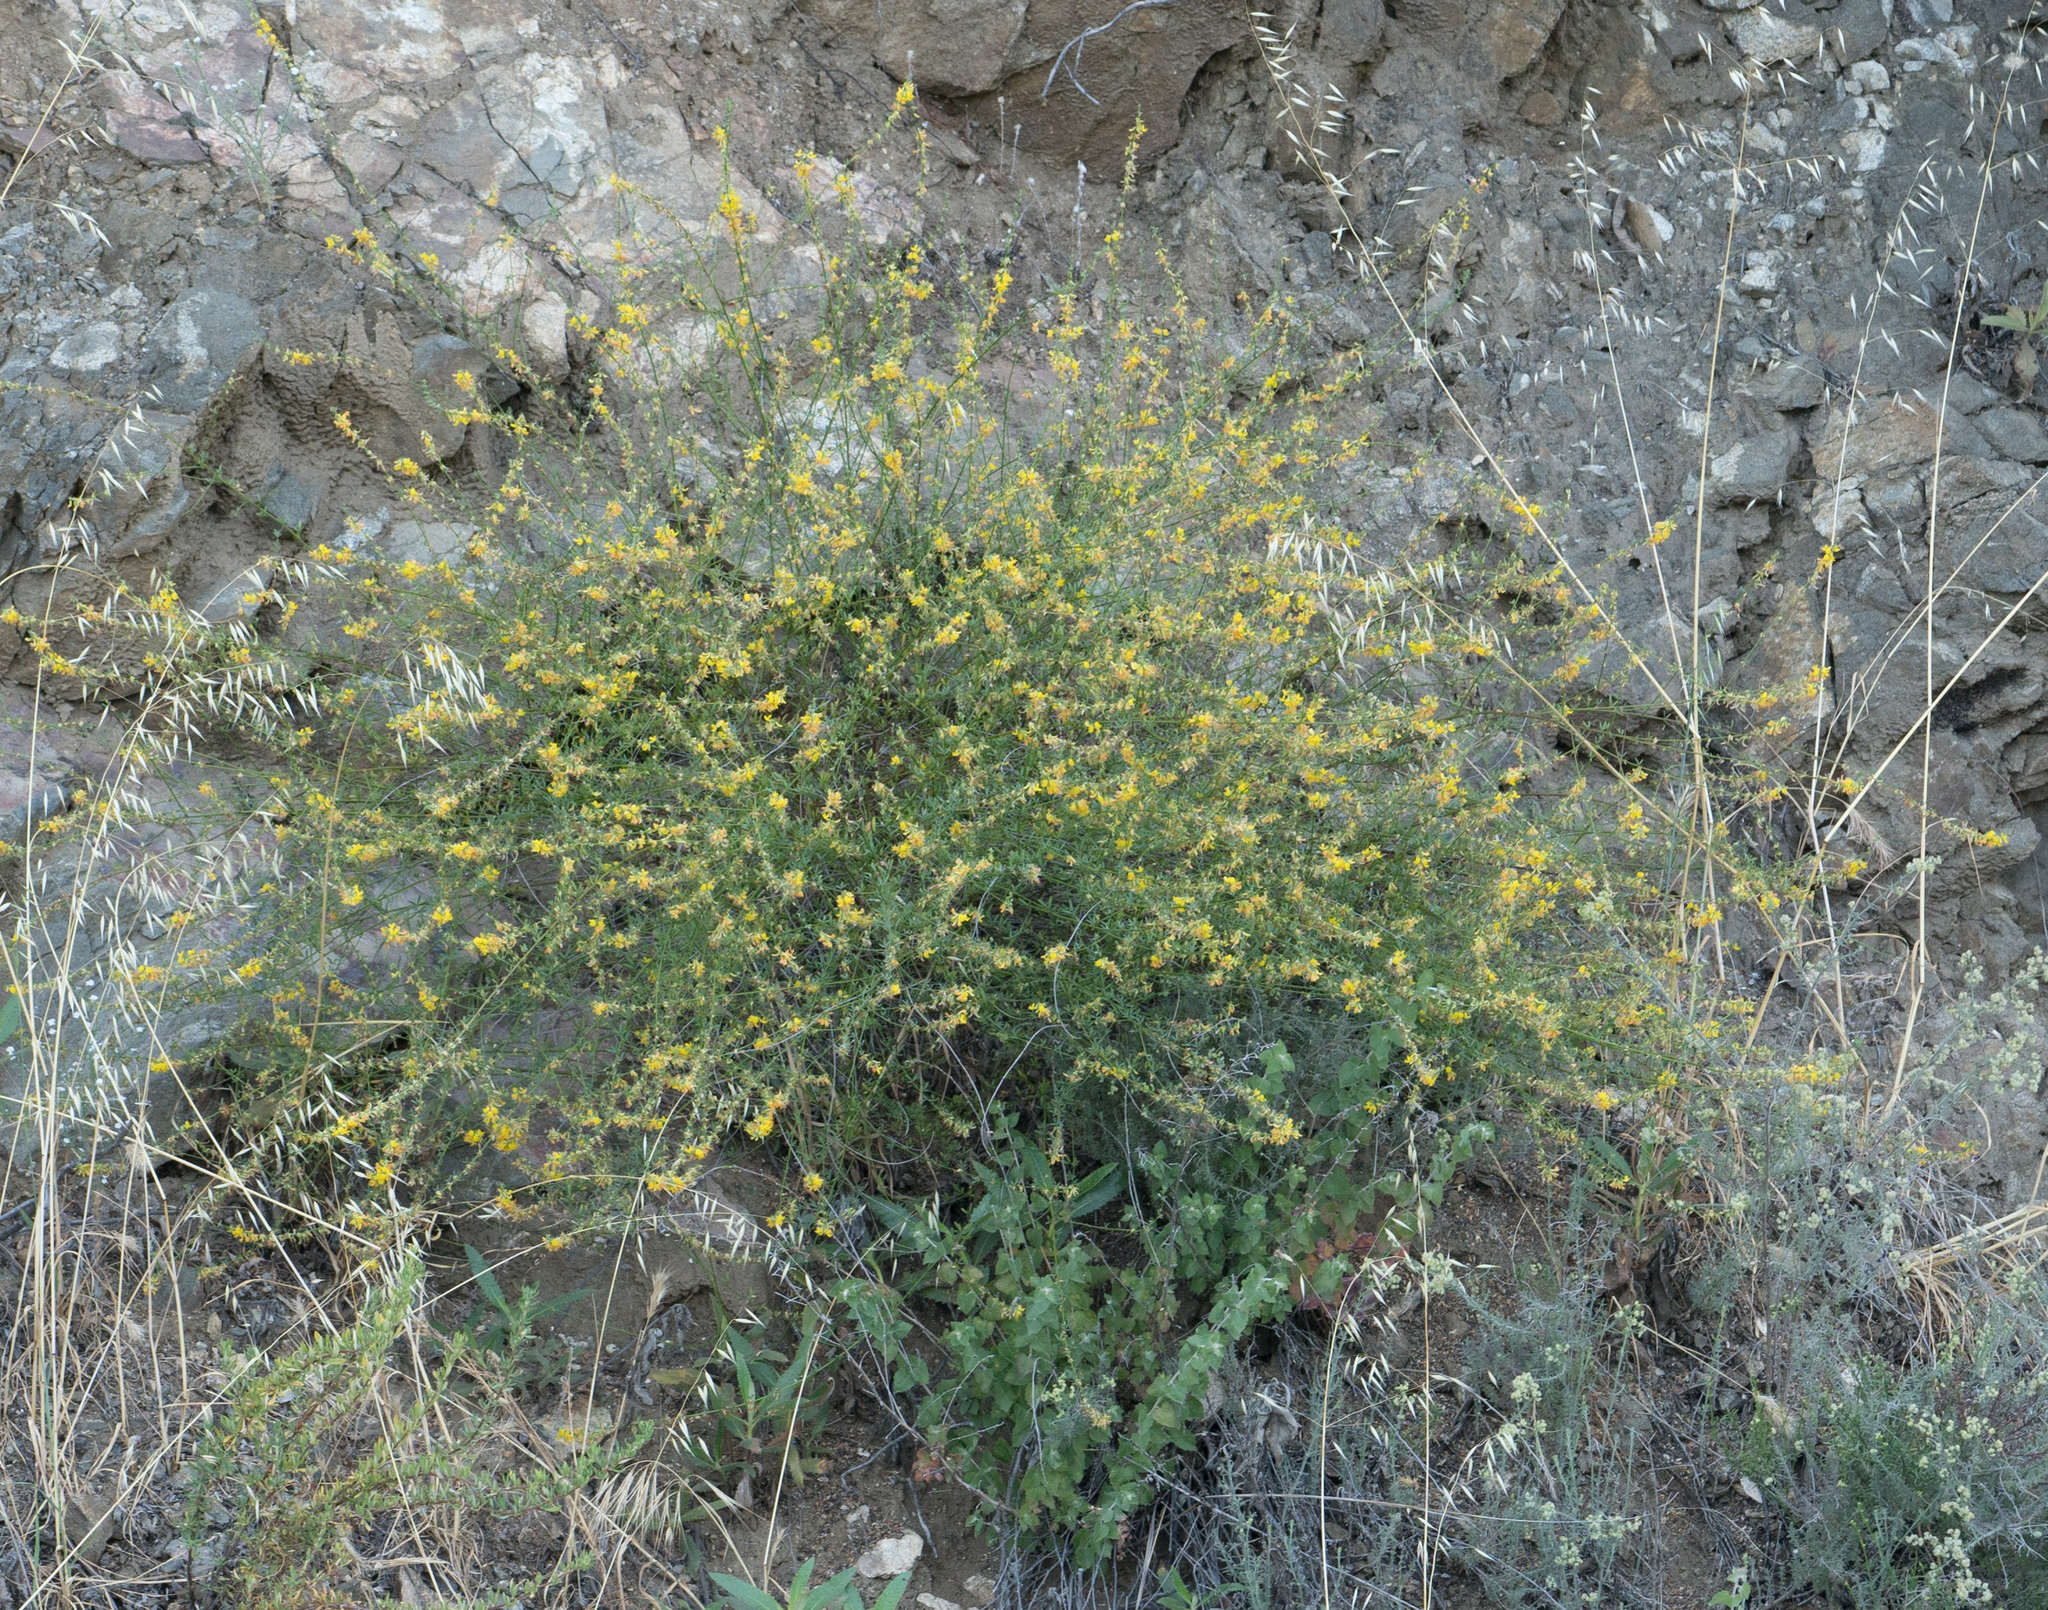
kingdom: Plantae
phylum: Tracheophyta
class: Magnoliopsida
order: Fabales
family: Fabaceae
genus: Acmispon
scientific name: Acmispon glaber
